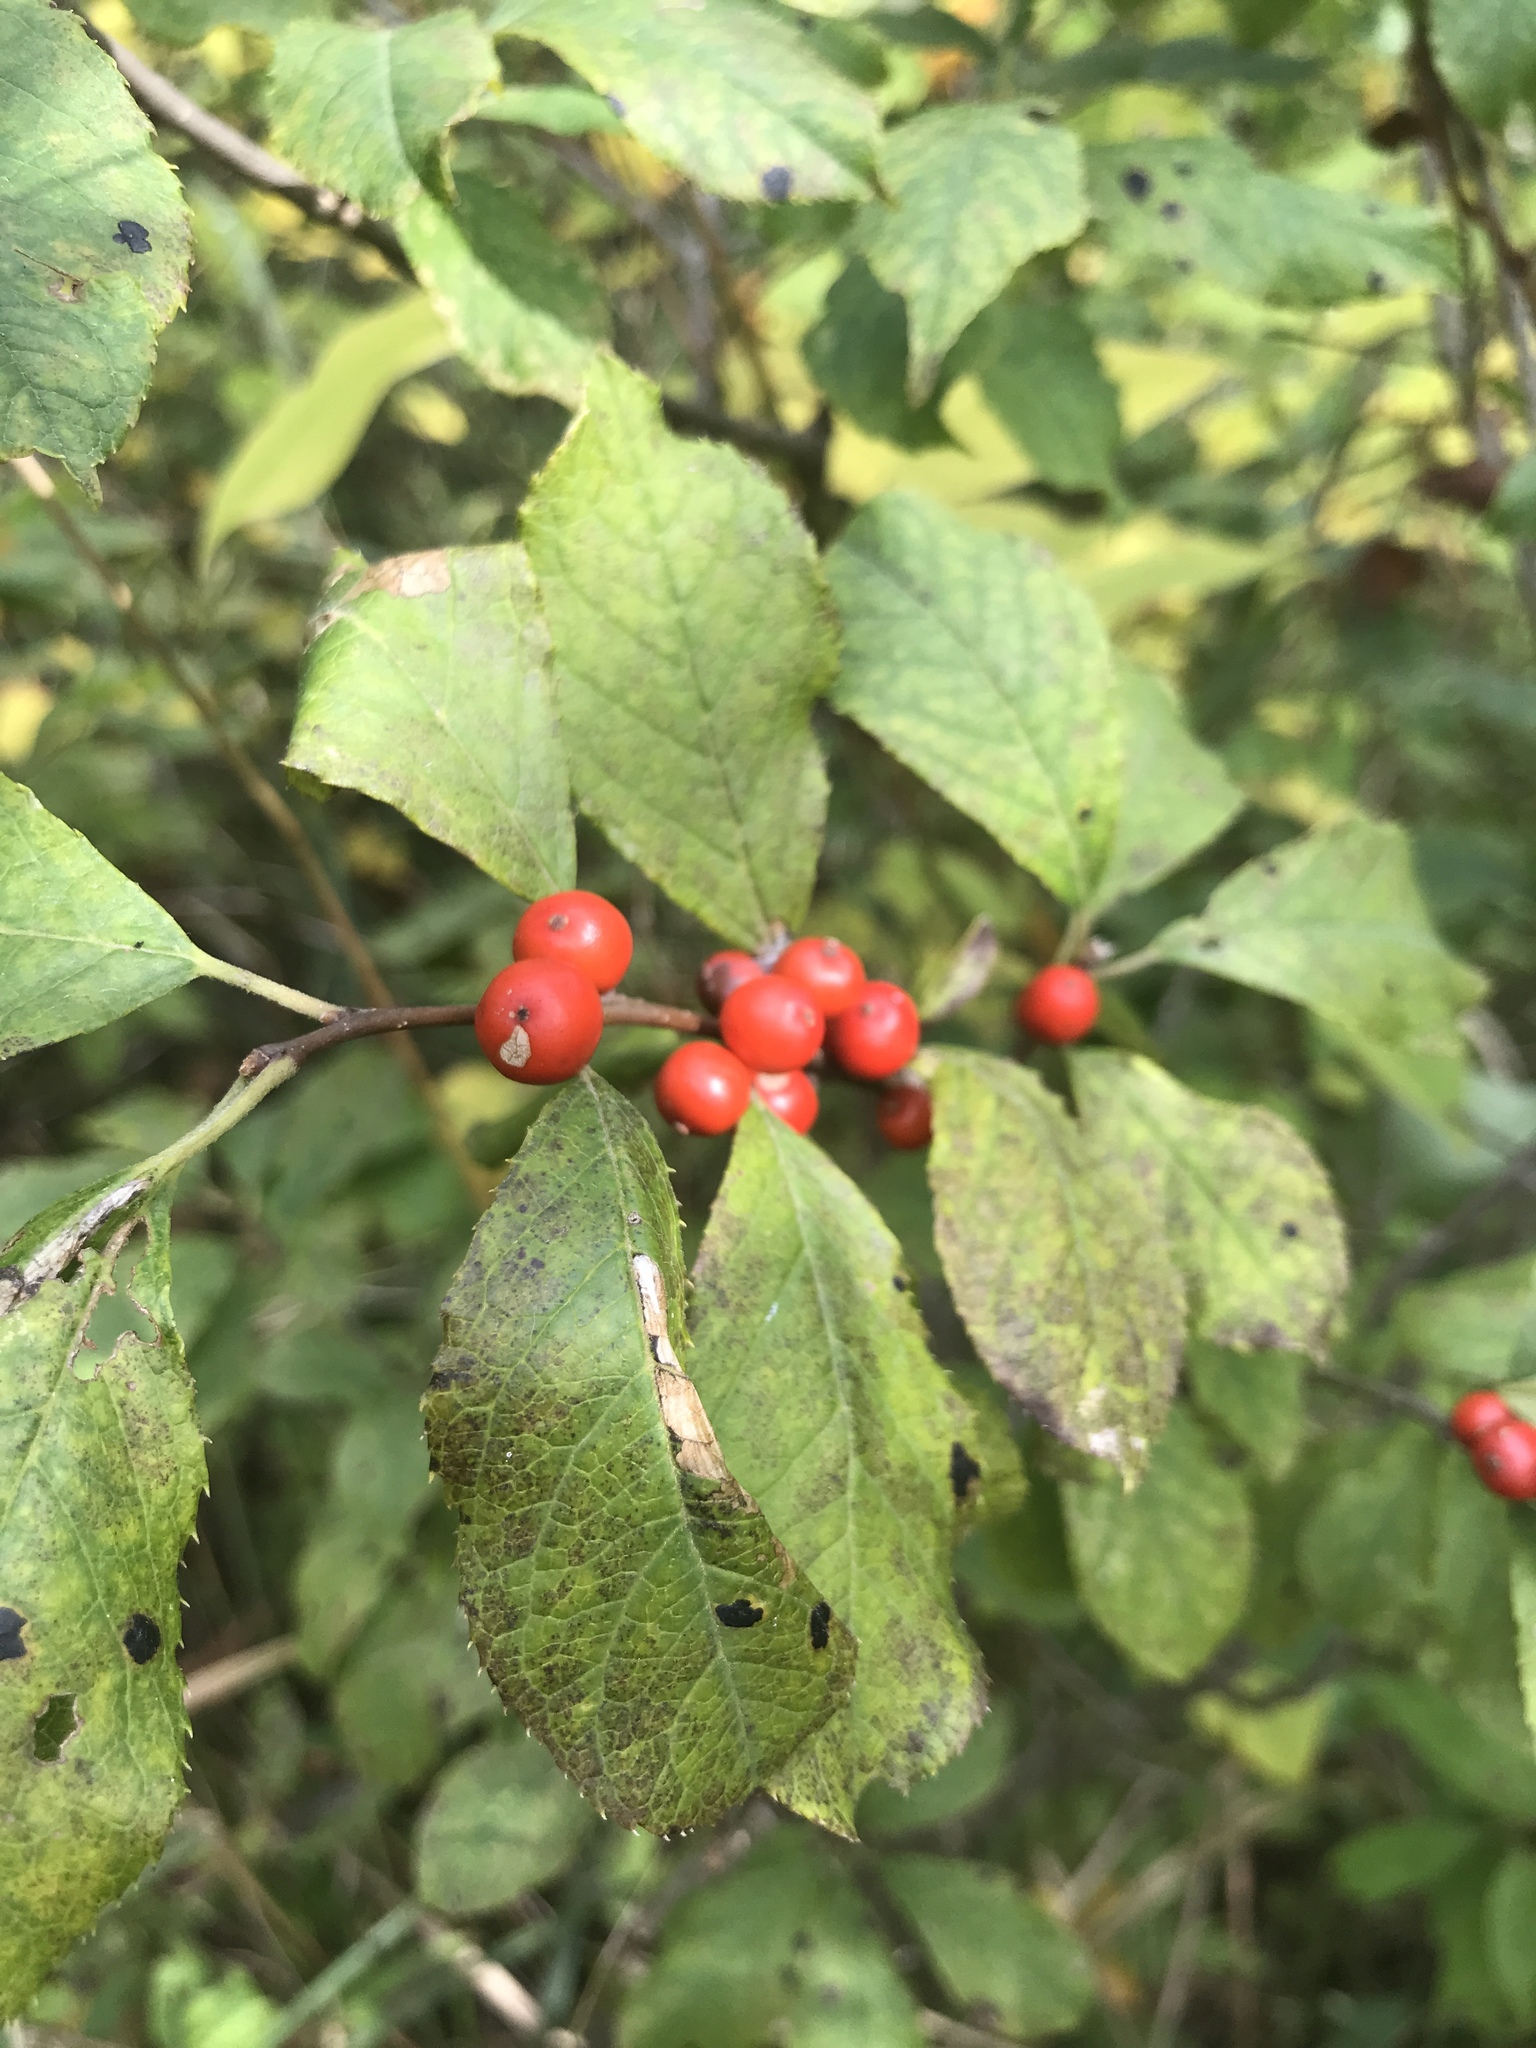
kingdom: Plantae
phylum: Tracheophyta
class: Magnoliopsida
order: Aquifoliales
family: Aquifoliaceae
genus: Ilex
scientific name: Ilex verticillata
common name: Virginia winterberry
